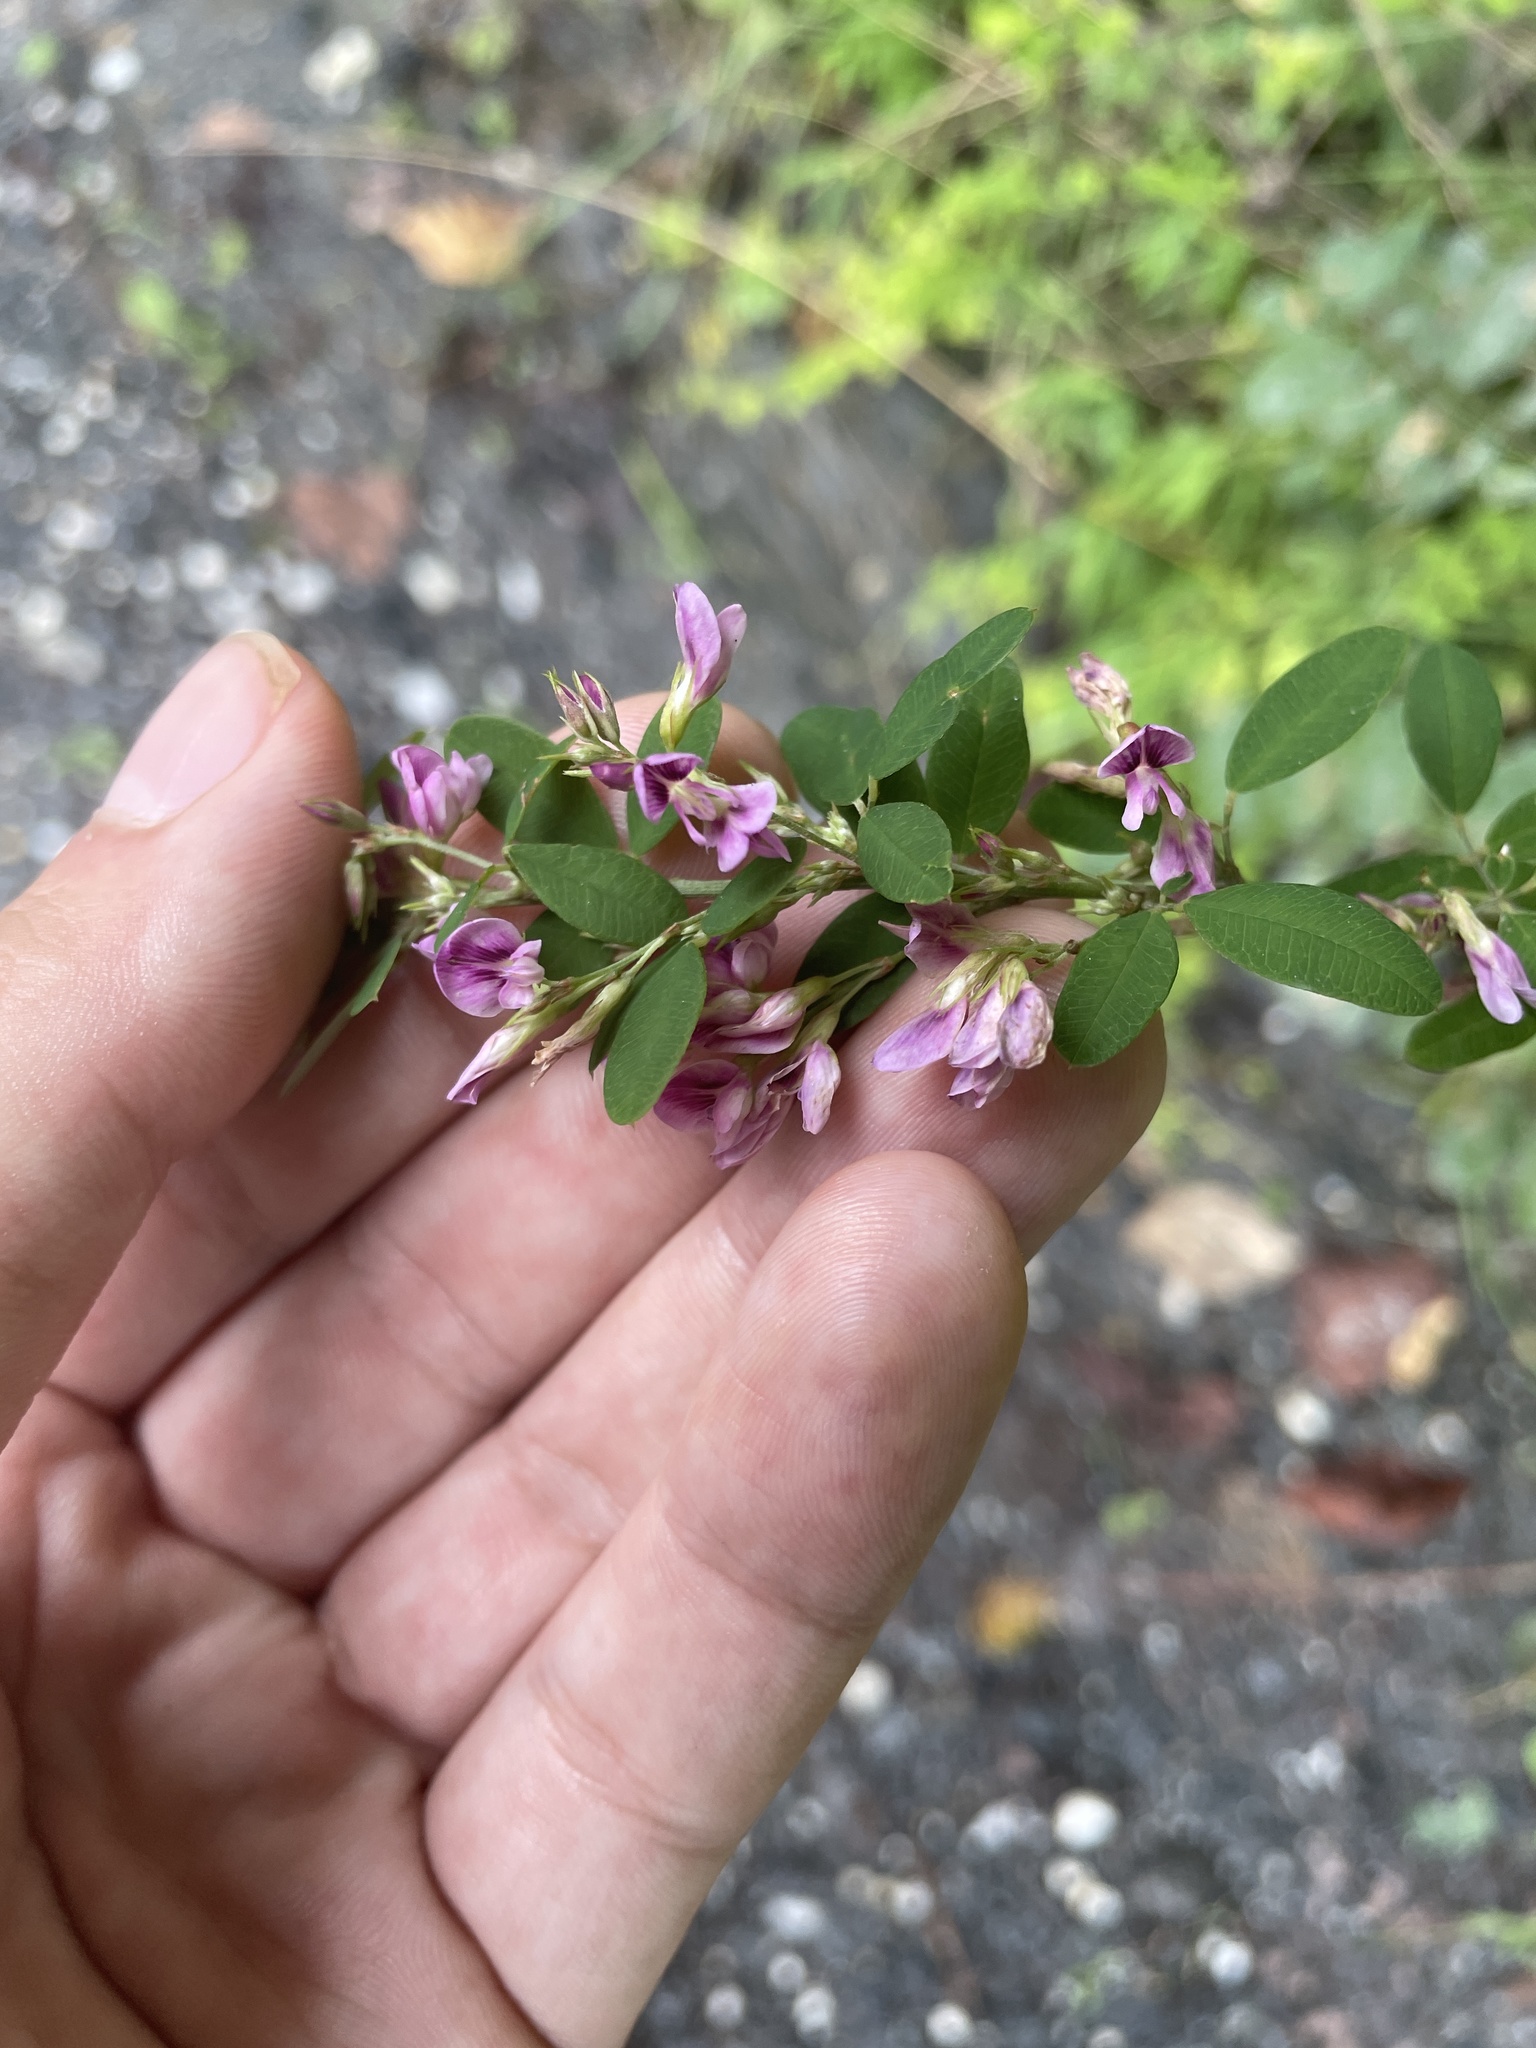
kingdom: Plantae
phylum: Tracheophyta
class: Magnoliopsida
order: Fabales
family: Fabaceae
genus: Lespedeza
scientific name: Lespedeza violacea
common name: Wand bush-clover
